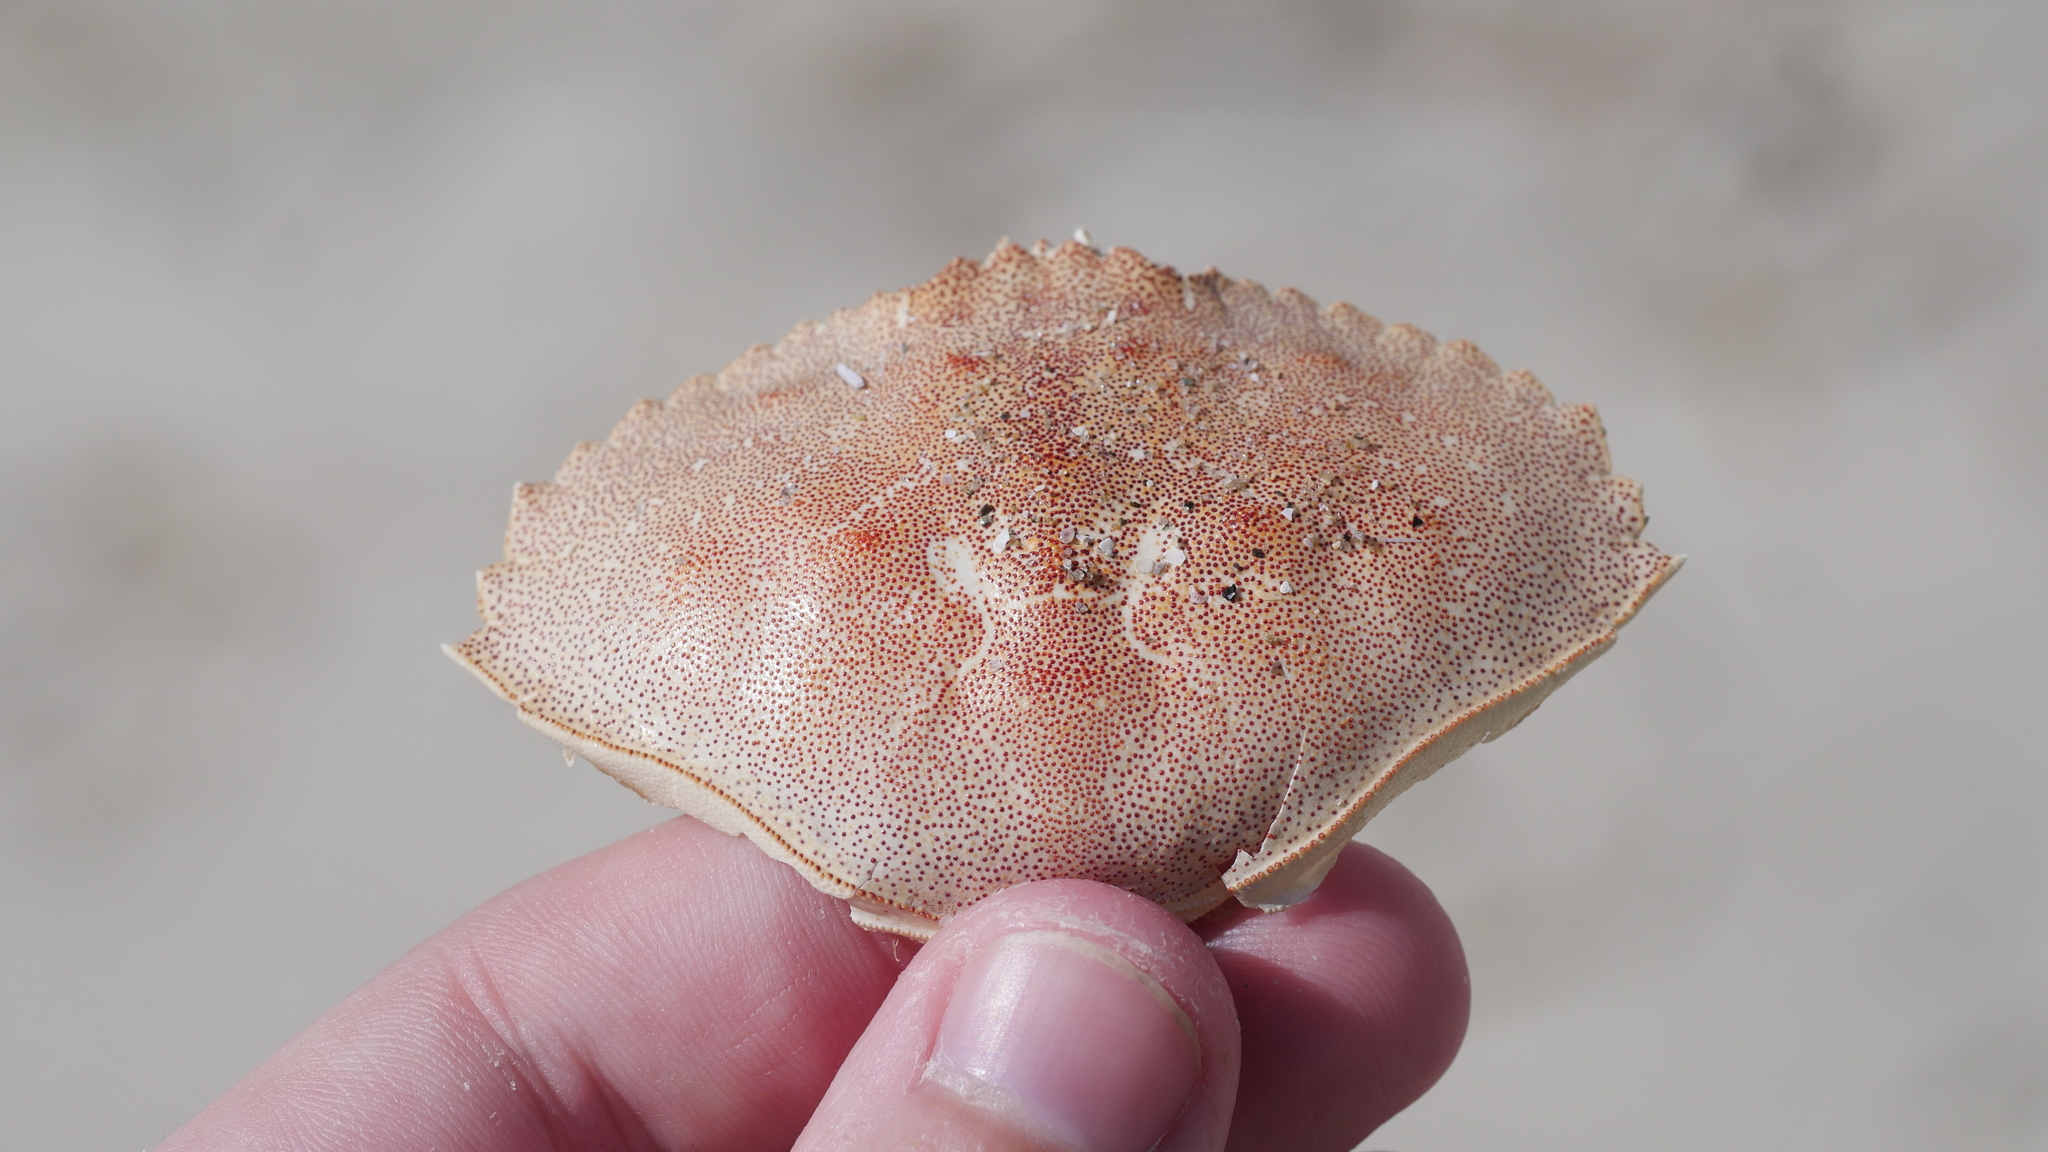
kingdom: Animalia
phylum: Arthropoda
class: Malacostraca
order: Decapoda
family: Cancridae
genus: Cancer
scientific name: Cancer irroratus
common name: Atlantic rock crab
